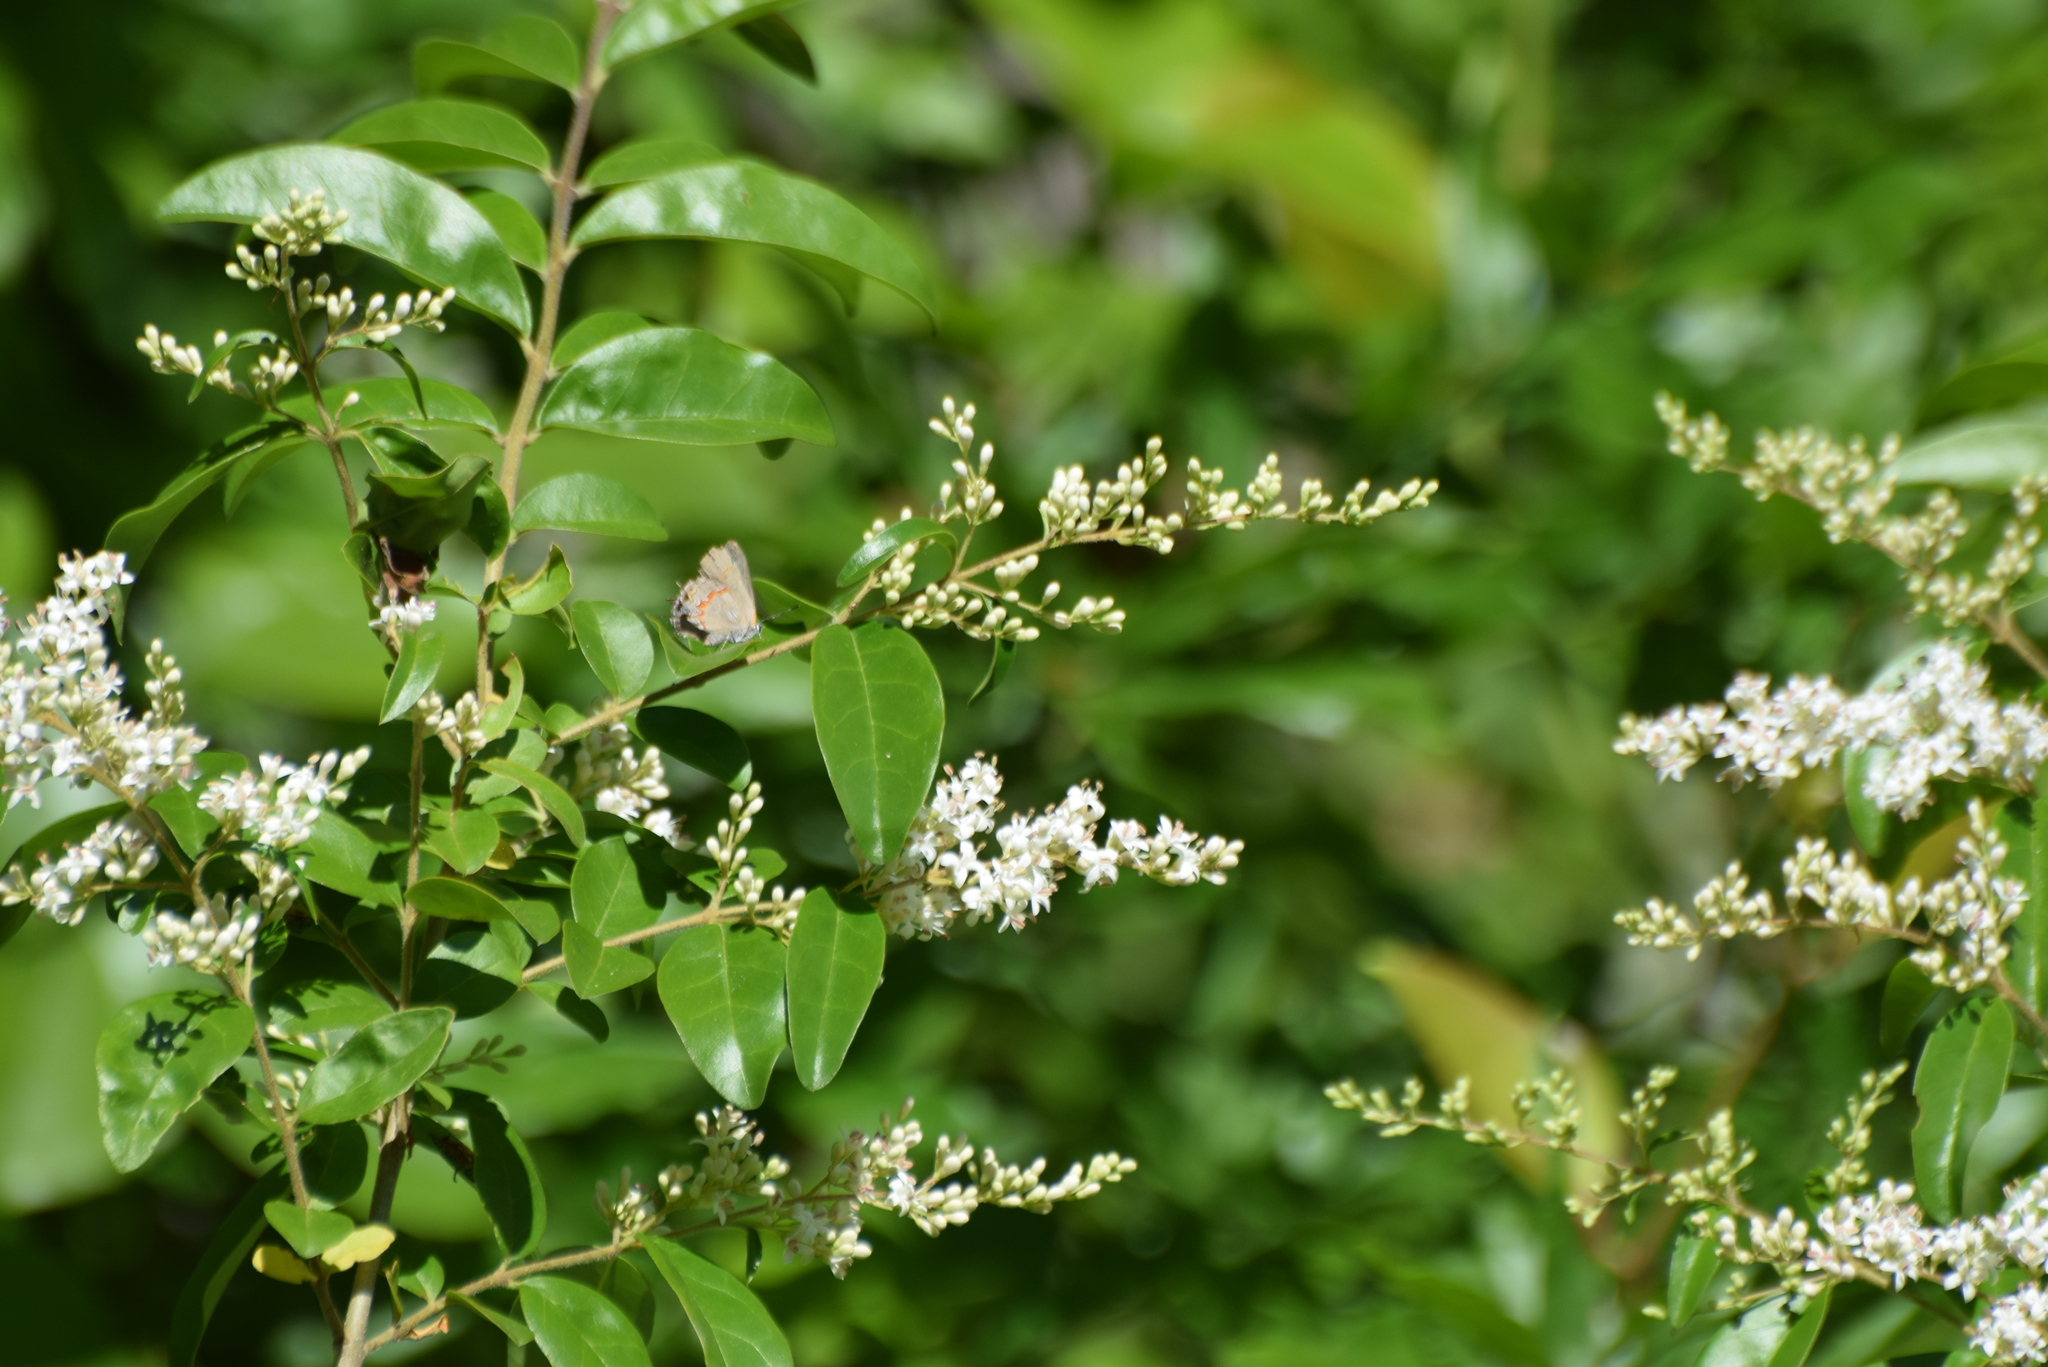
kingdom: Animalia
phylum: Arthropoda
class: Insecta
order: Lepidoptera
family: Lycaenidae
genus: Calycopis
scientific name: Calycopis cecrops
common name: Red-banded hairstreak
